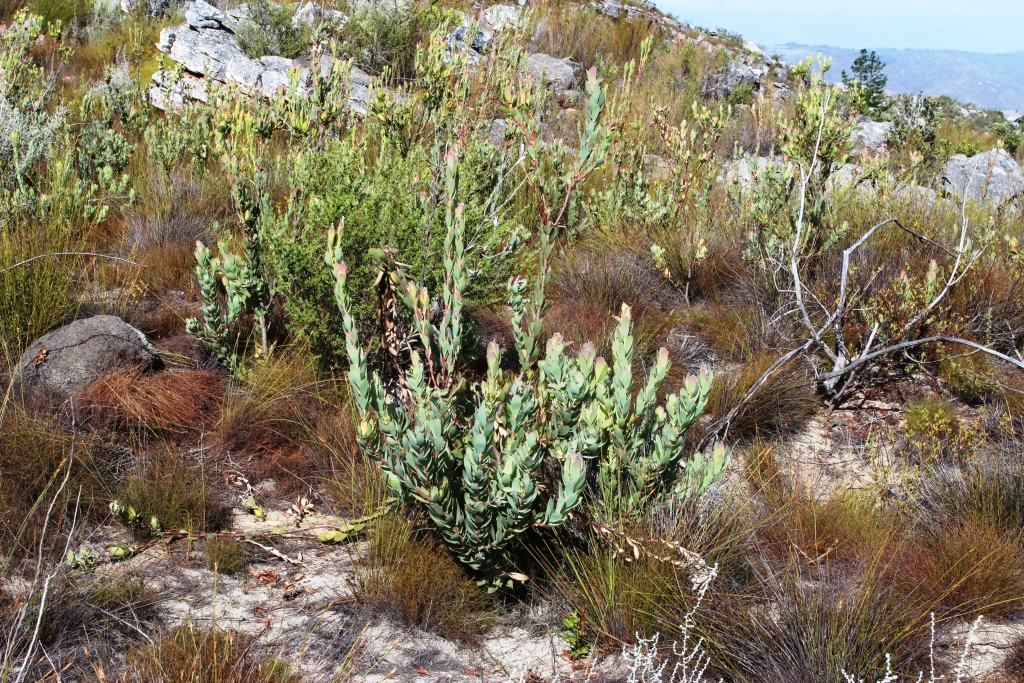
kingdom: Plantae
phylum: Tracheophyta
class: Magnoliopsida
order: Proteales
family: Proteaceae
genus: Leucadendron
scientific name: Leucadendron discolor
